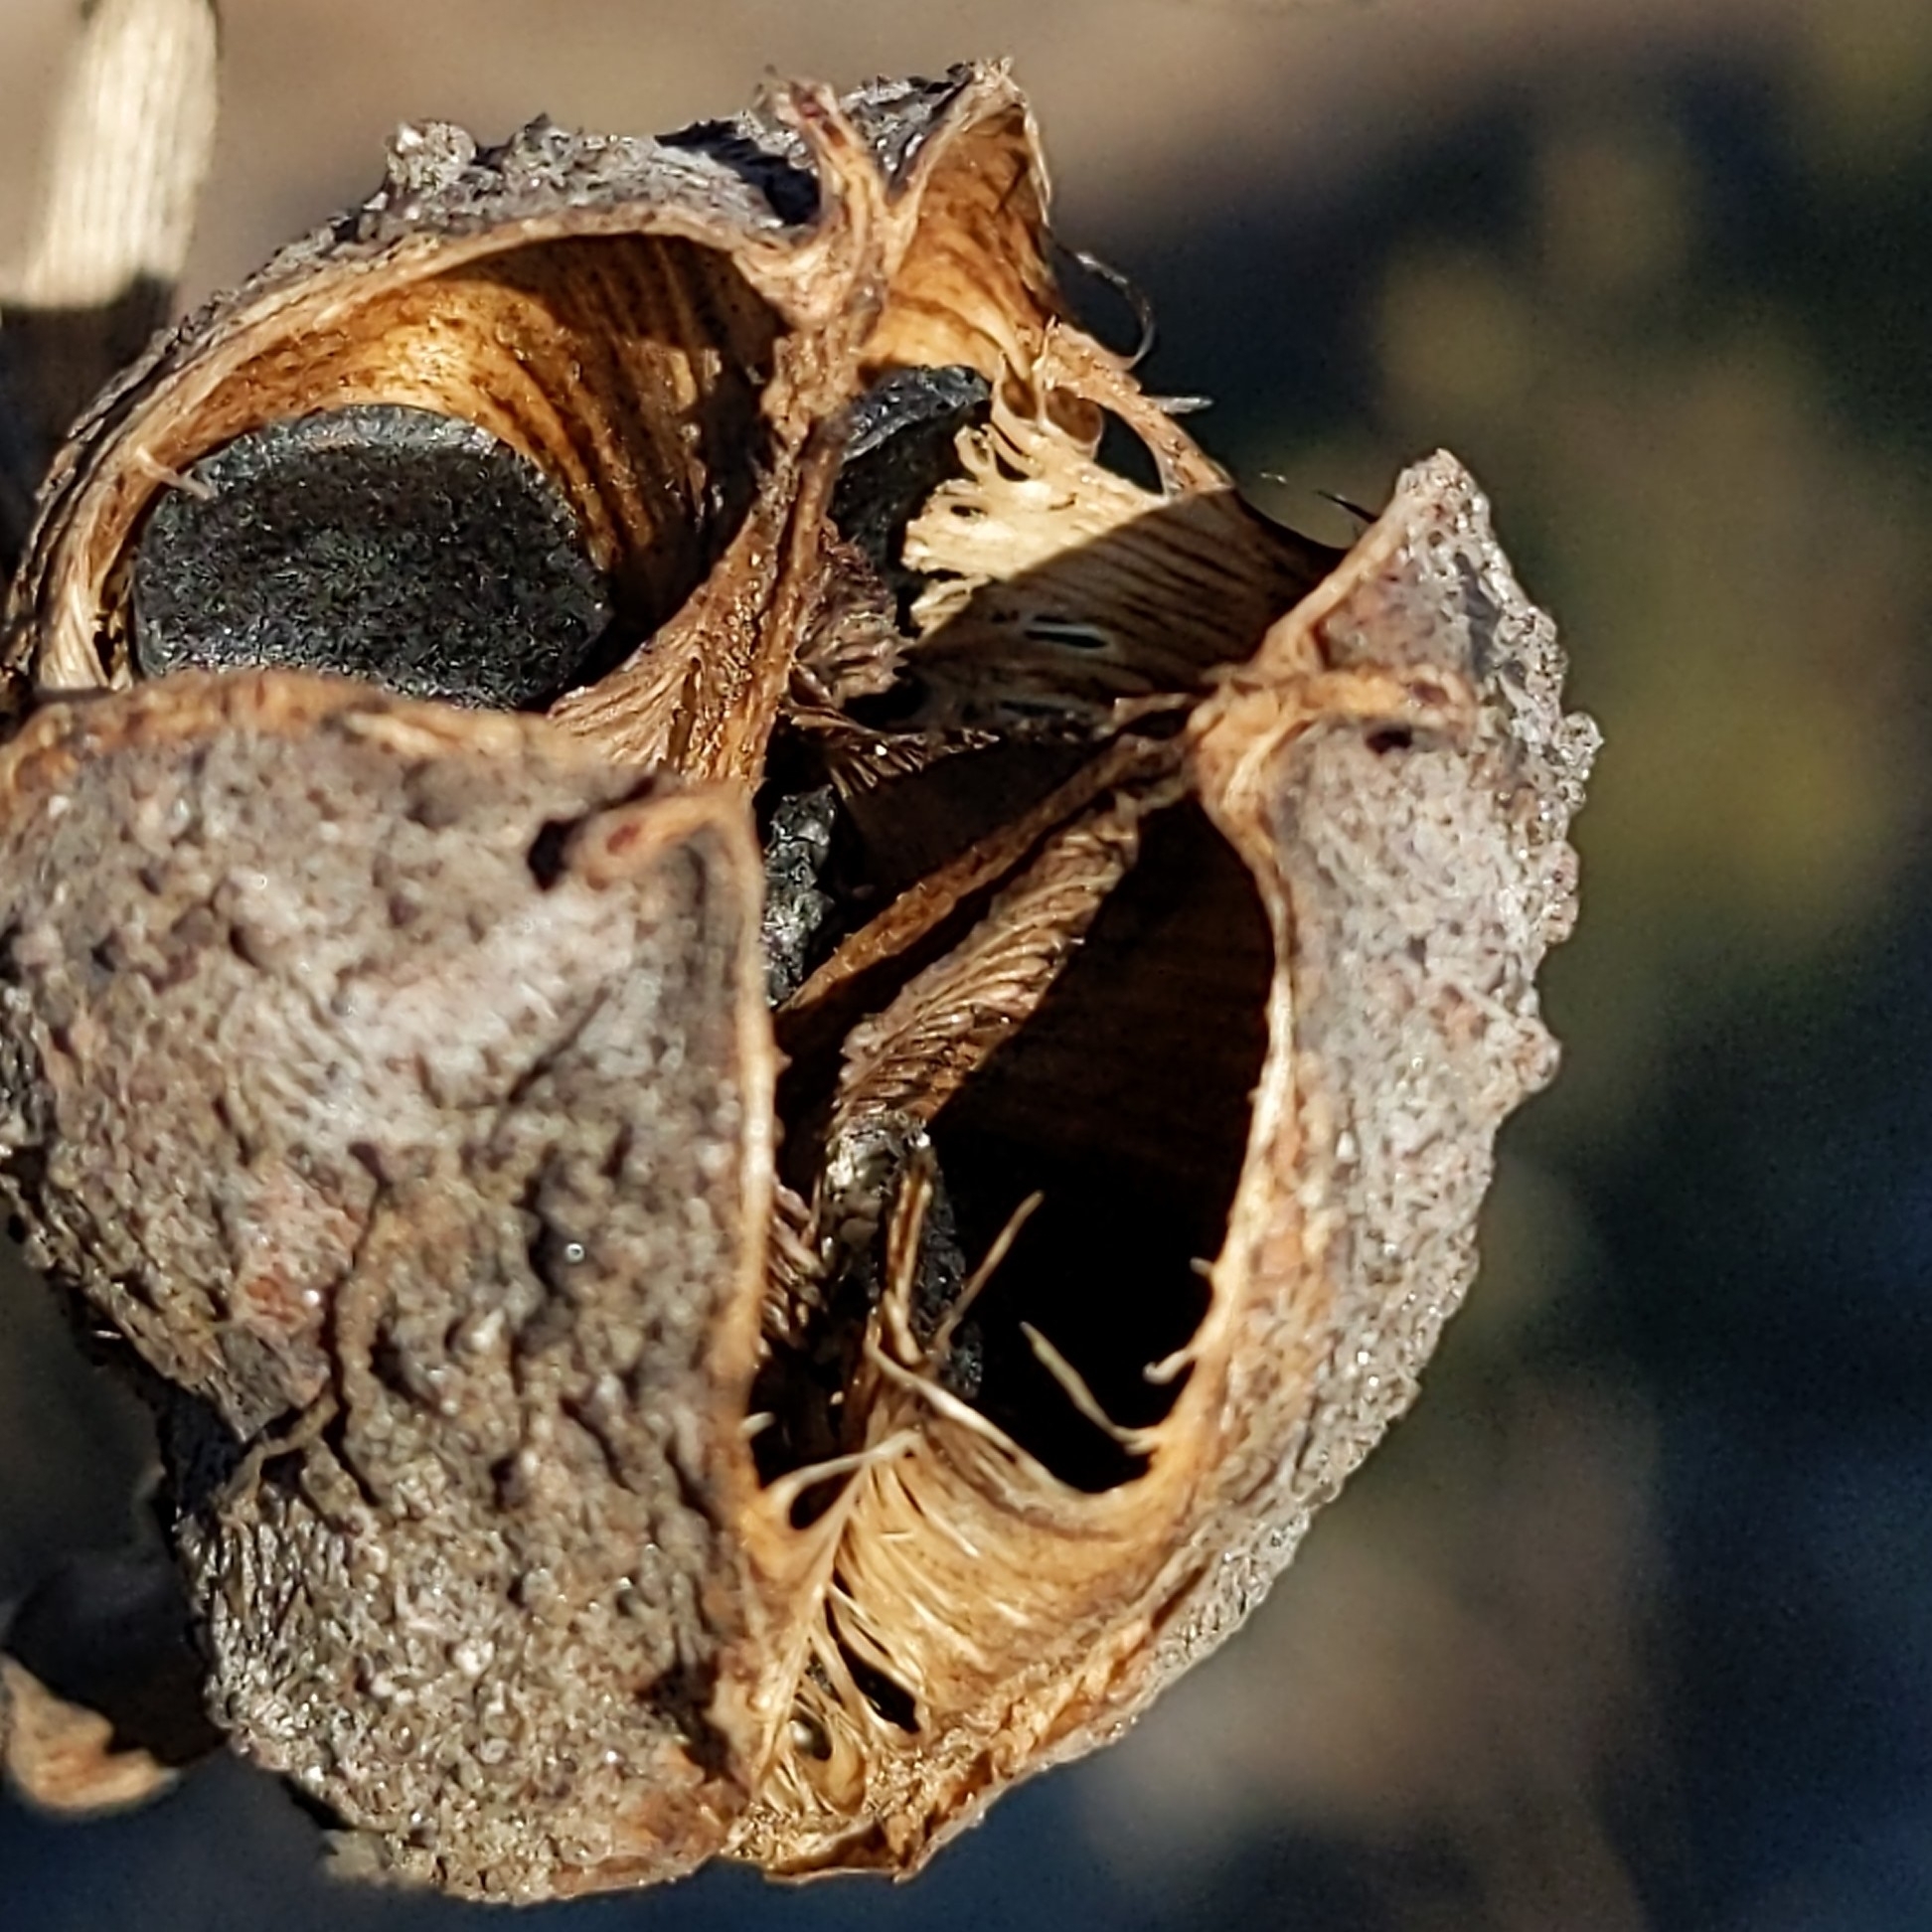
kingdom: Plantae
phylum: Tracheophyta
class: Liliopsida
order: Asparagales
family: Asparagaceae
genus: Hesperoyucca
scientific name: Hesperoyucca whipplei
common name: Our lord's-candle
